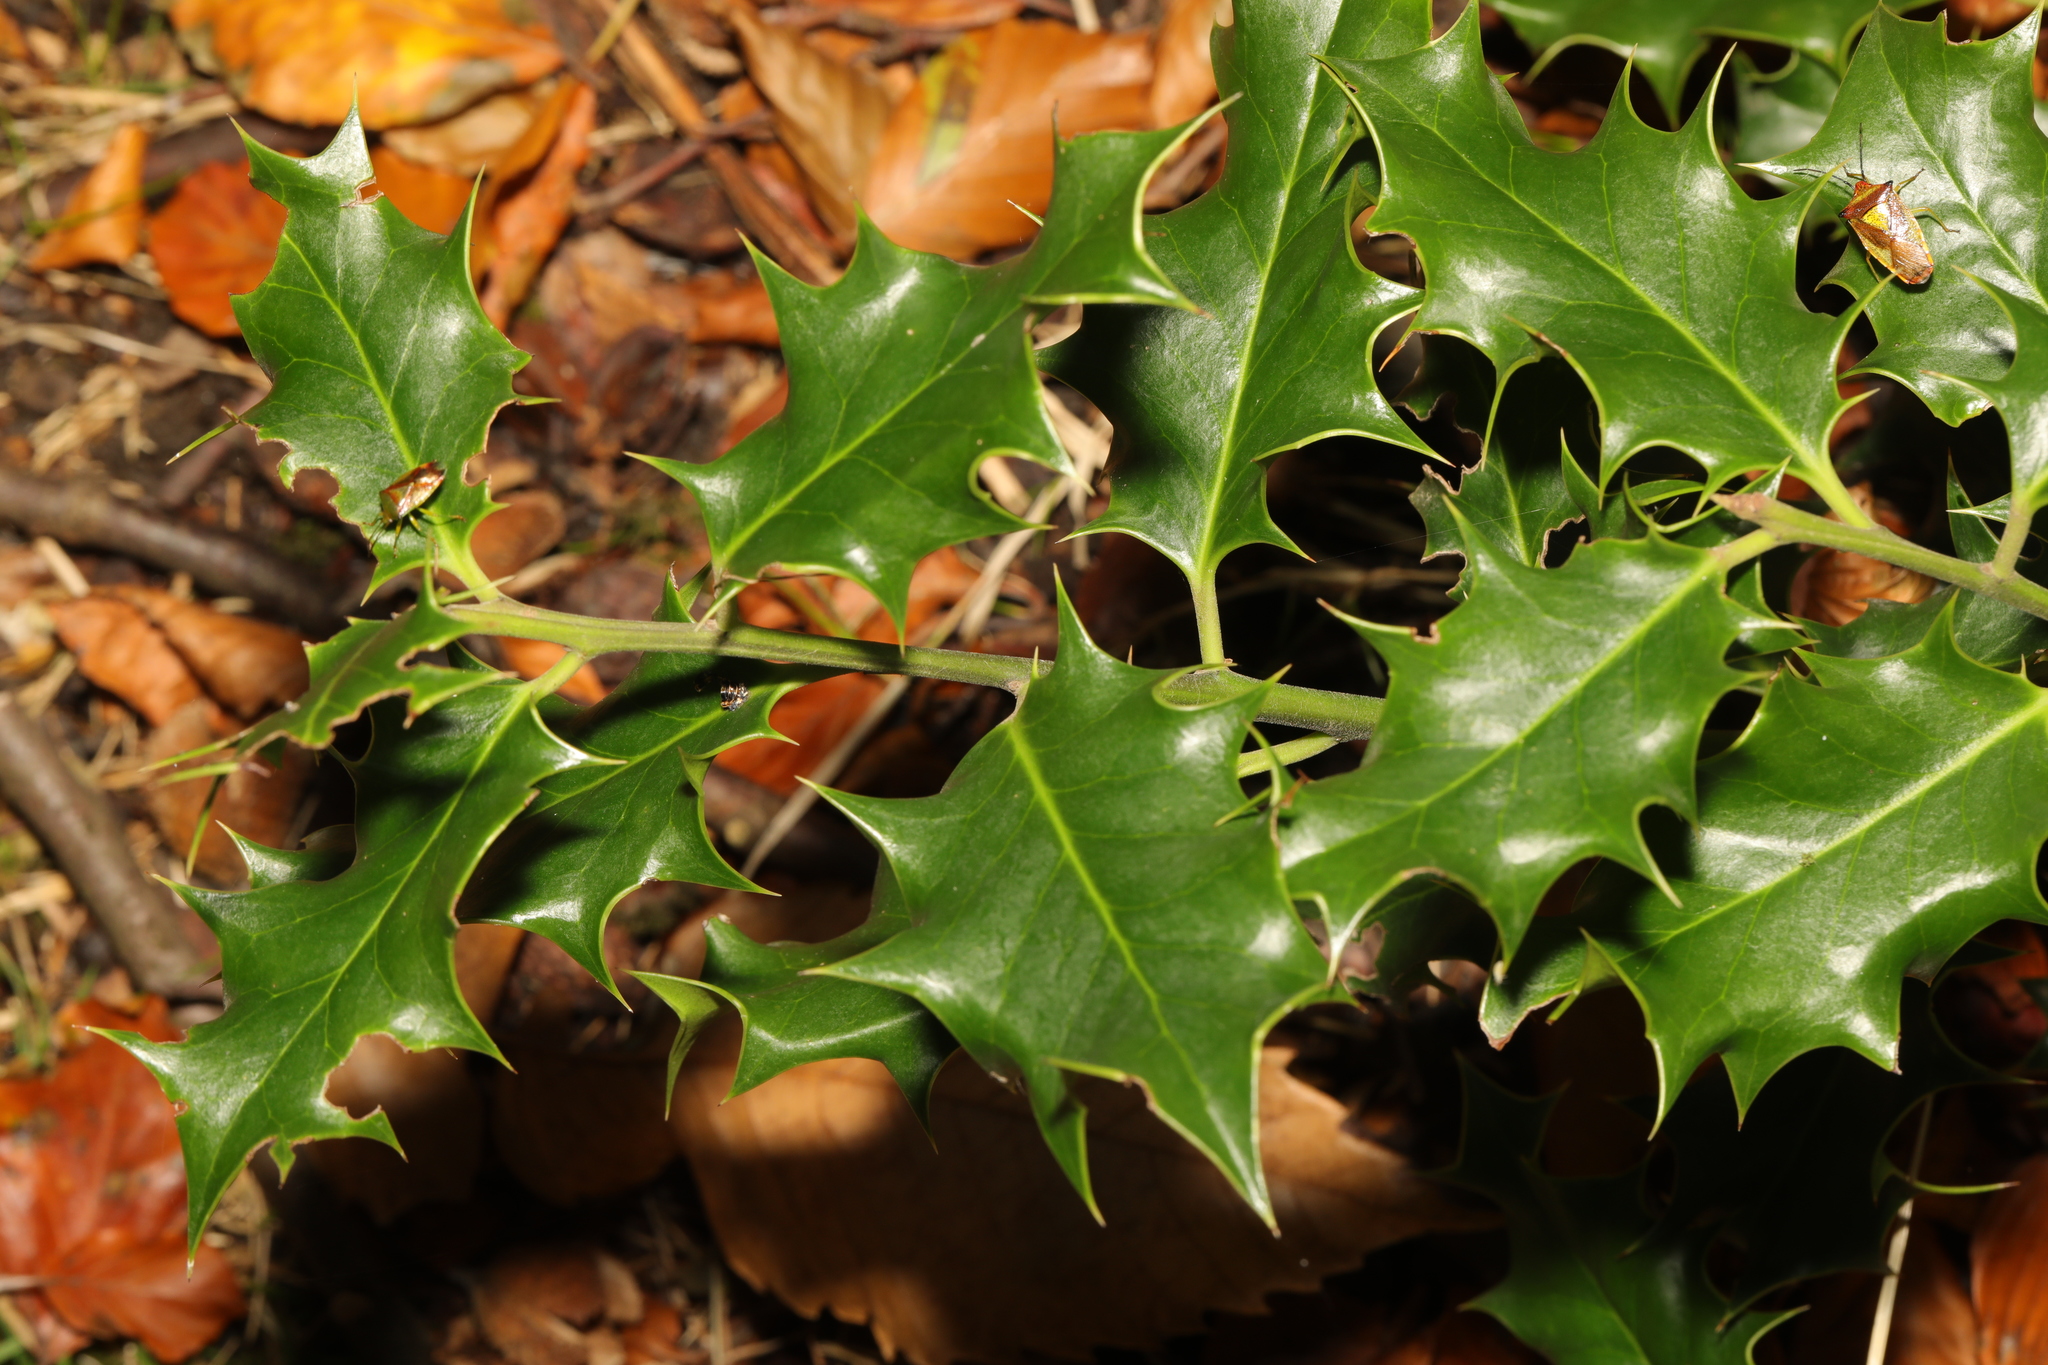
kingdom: Plantae
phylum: Tracheophyta
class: Magnoliopsida
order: Aquifoliales
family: Aquifoliaceae
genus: Ilex
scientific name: Ilex aquifolium
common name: English holly
